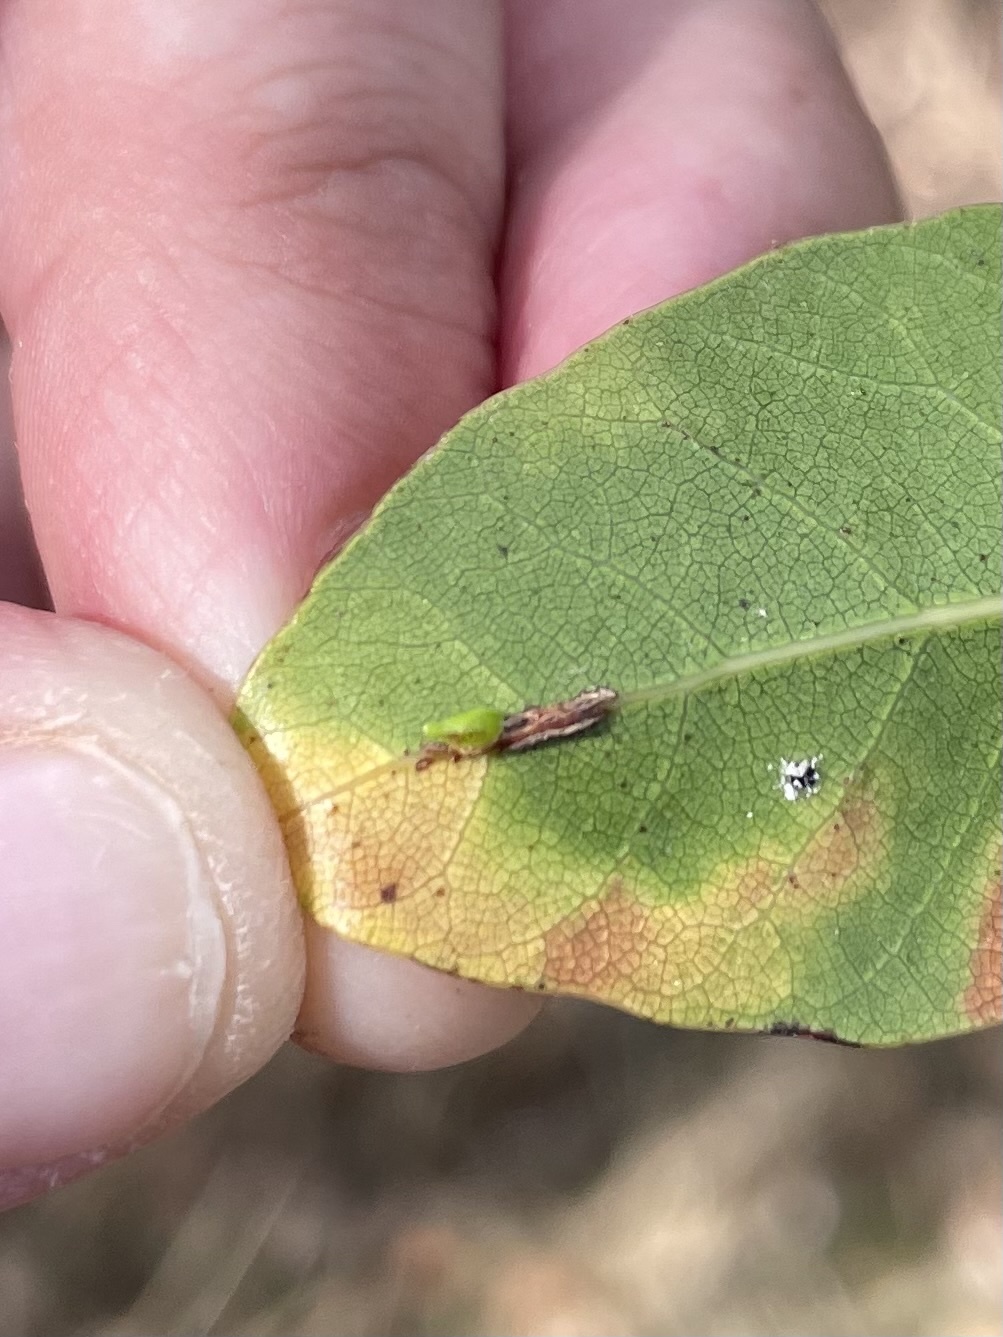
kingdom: Animalia
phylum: Arthropoda
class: Insecta
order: Hymenoptera
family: Cynipidae
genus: Dryocosmus
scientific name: Dryocosmus
